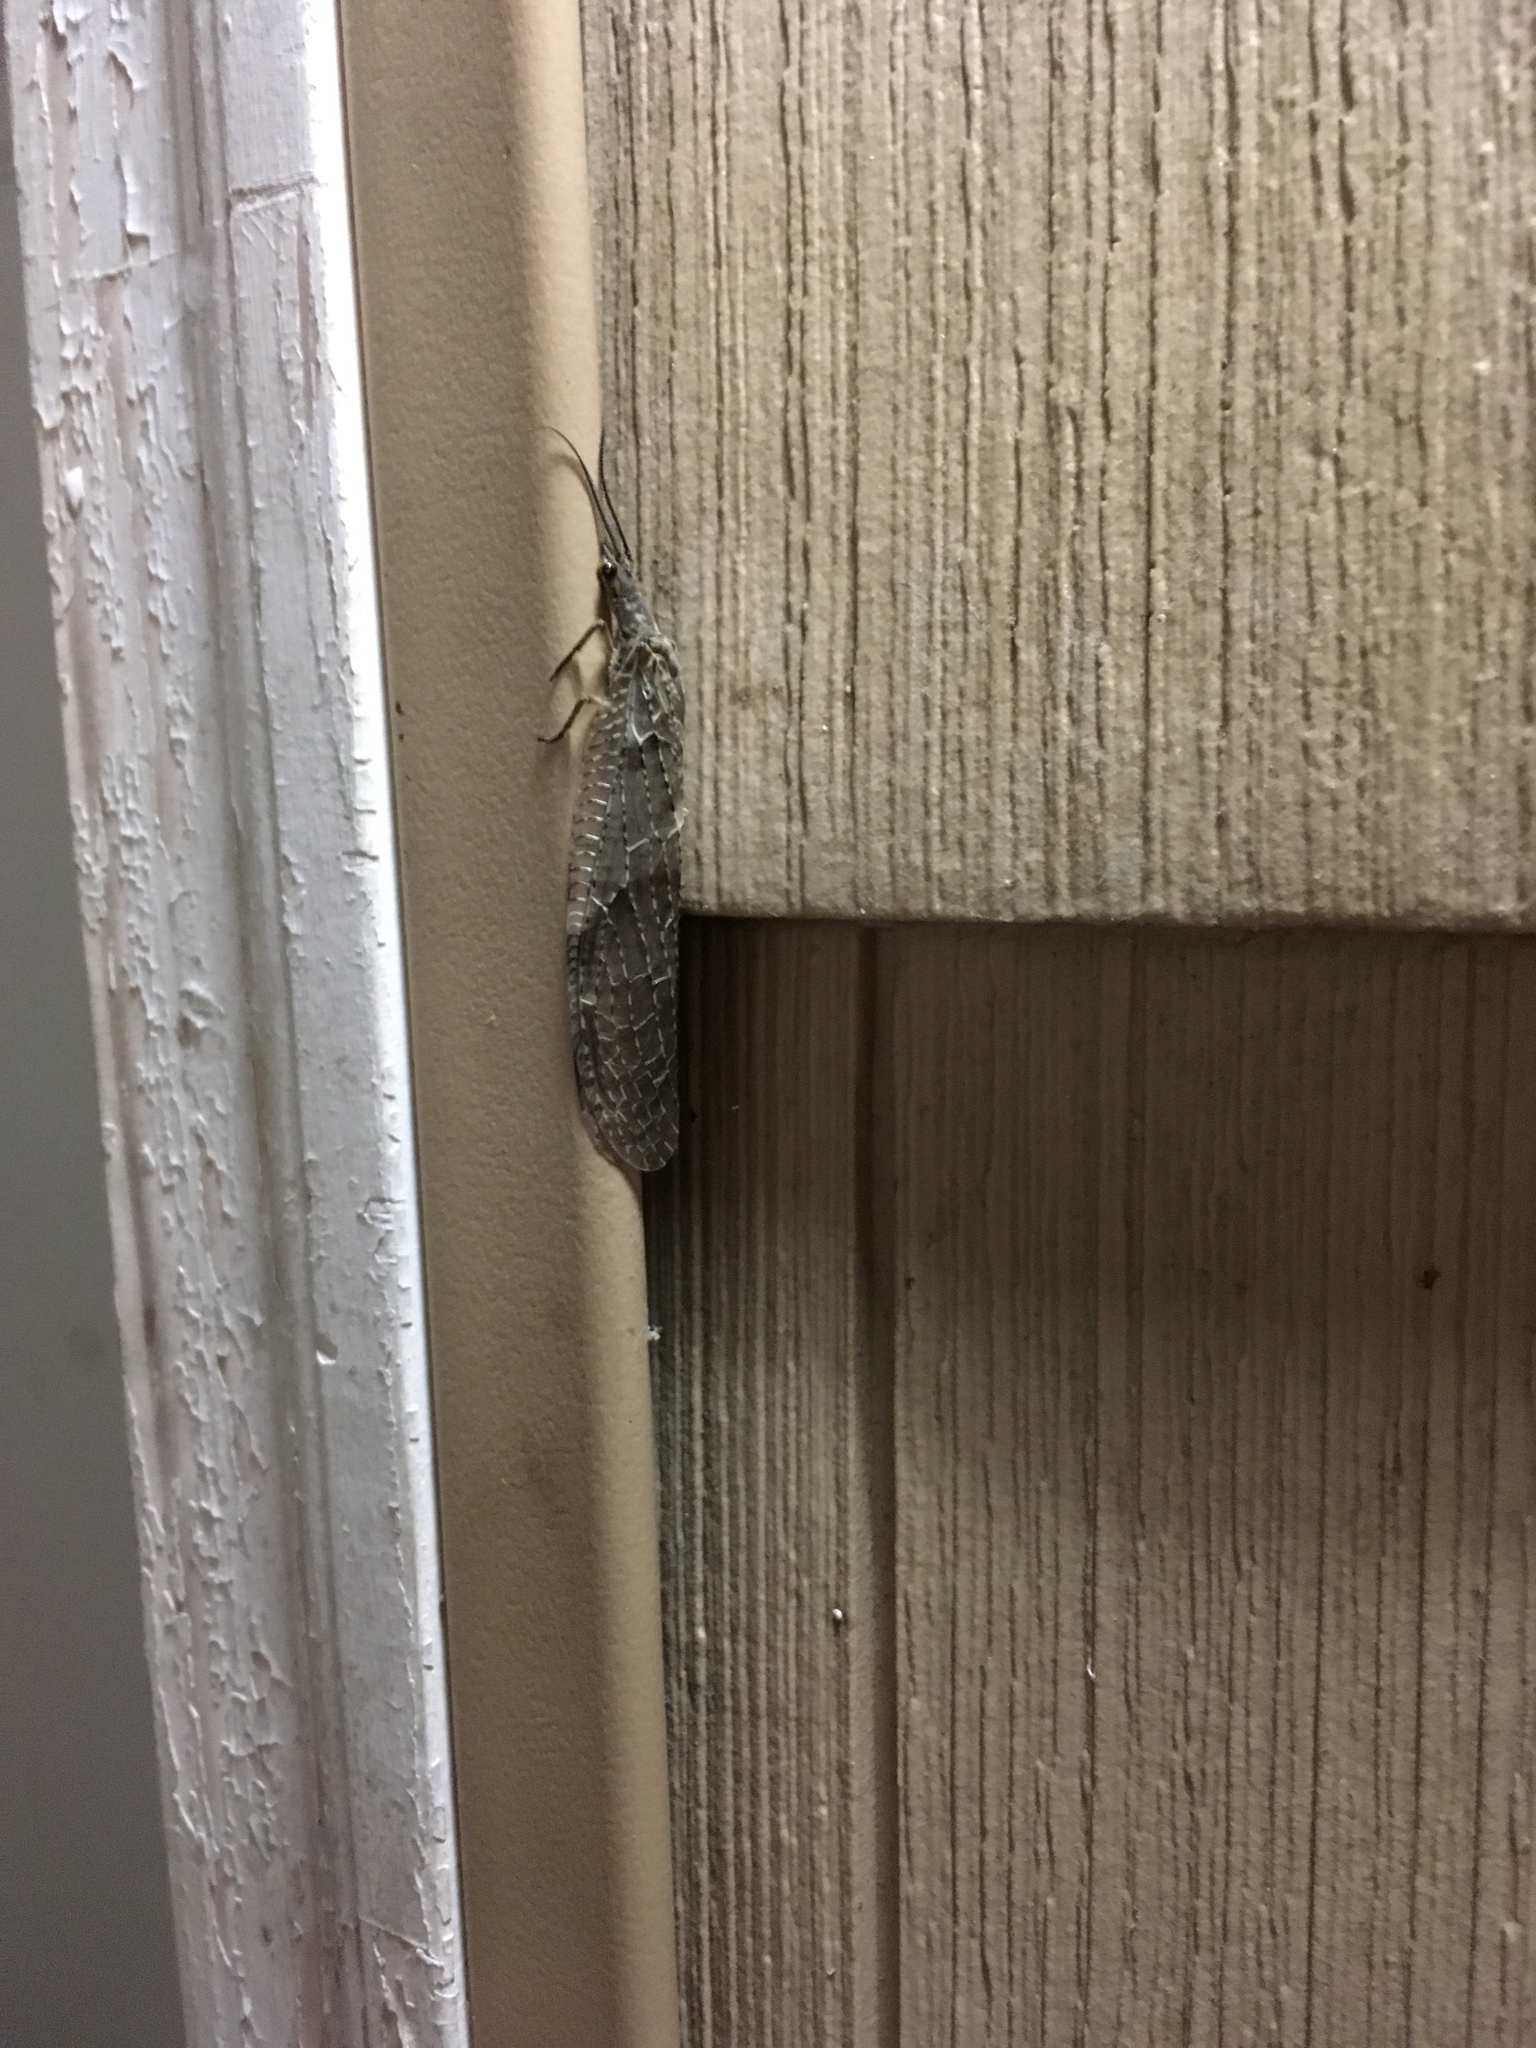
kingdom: Animalia
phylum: Arthropoda
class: Insecta
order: Megaloptera
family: Corydalidae
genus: Chauliodes
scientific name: Chauliodes pectinicornis
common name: Summer fishfly
